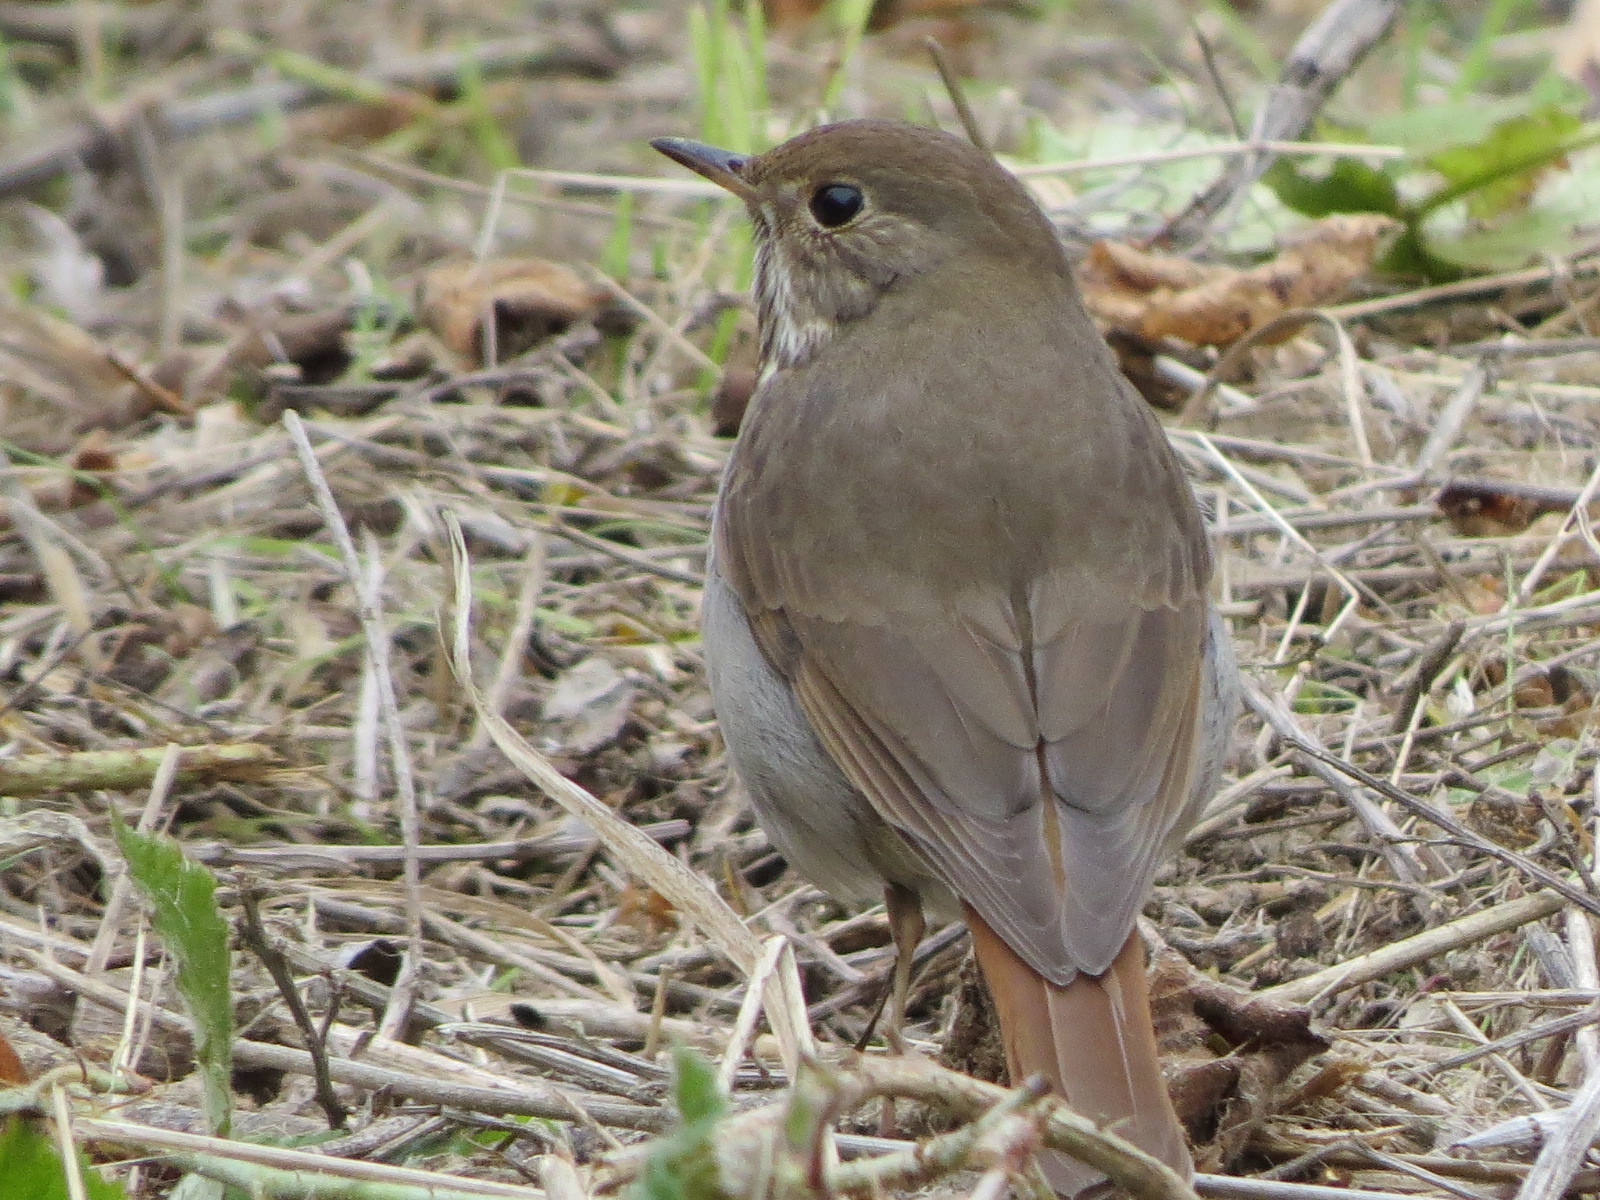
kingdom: Animalia
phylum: Chordata
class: Aves
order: Passeriformes
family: Turdidae
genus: Catharus
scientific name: Catharus guttatus
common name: Hermit thrush
